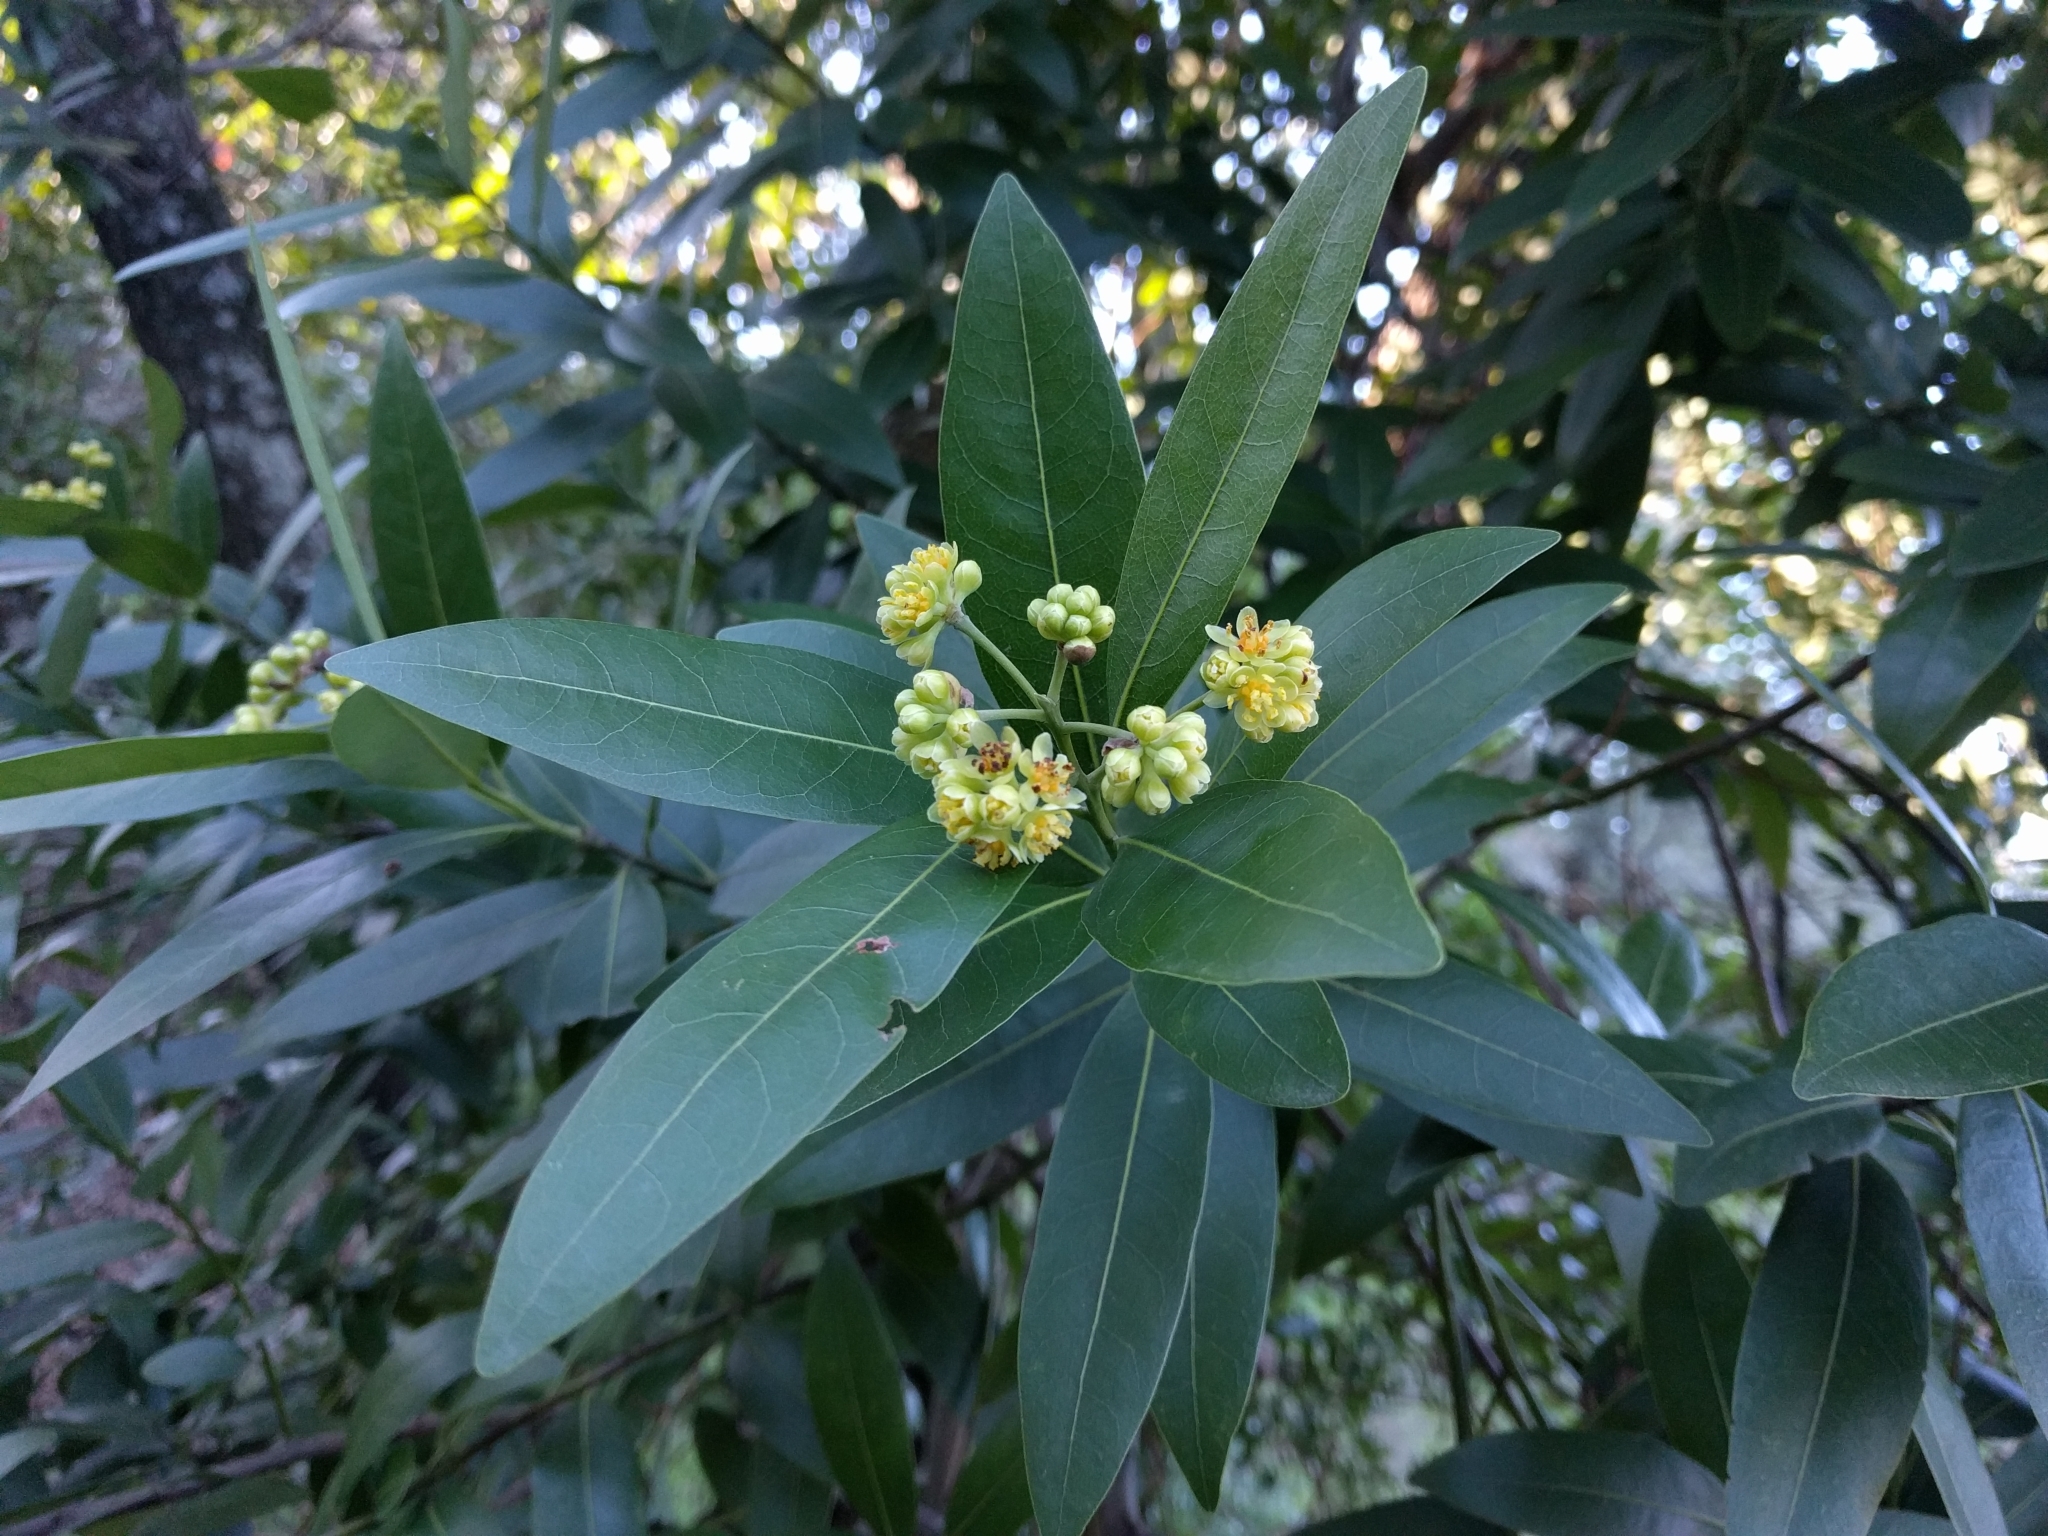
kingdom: Plantae
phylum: Tracheophyta
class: Magnoliopsida
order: Laurales
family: Lauraceae
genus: Umbellularia
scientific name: Umbellularia californica
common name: California bay
